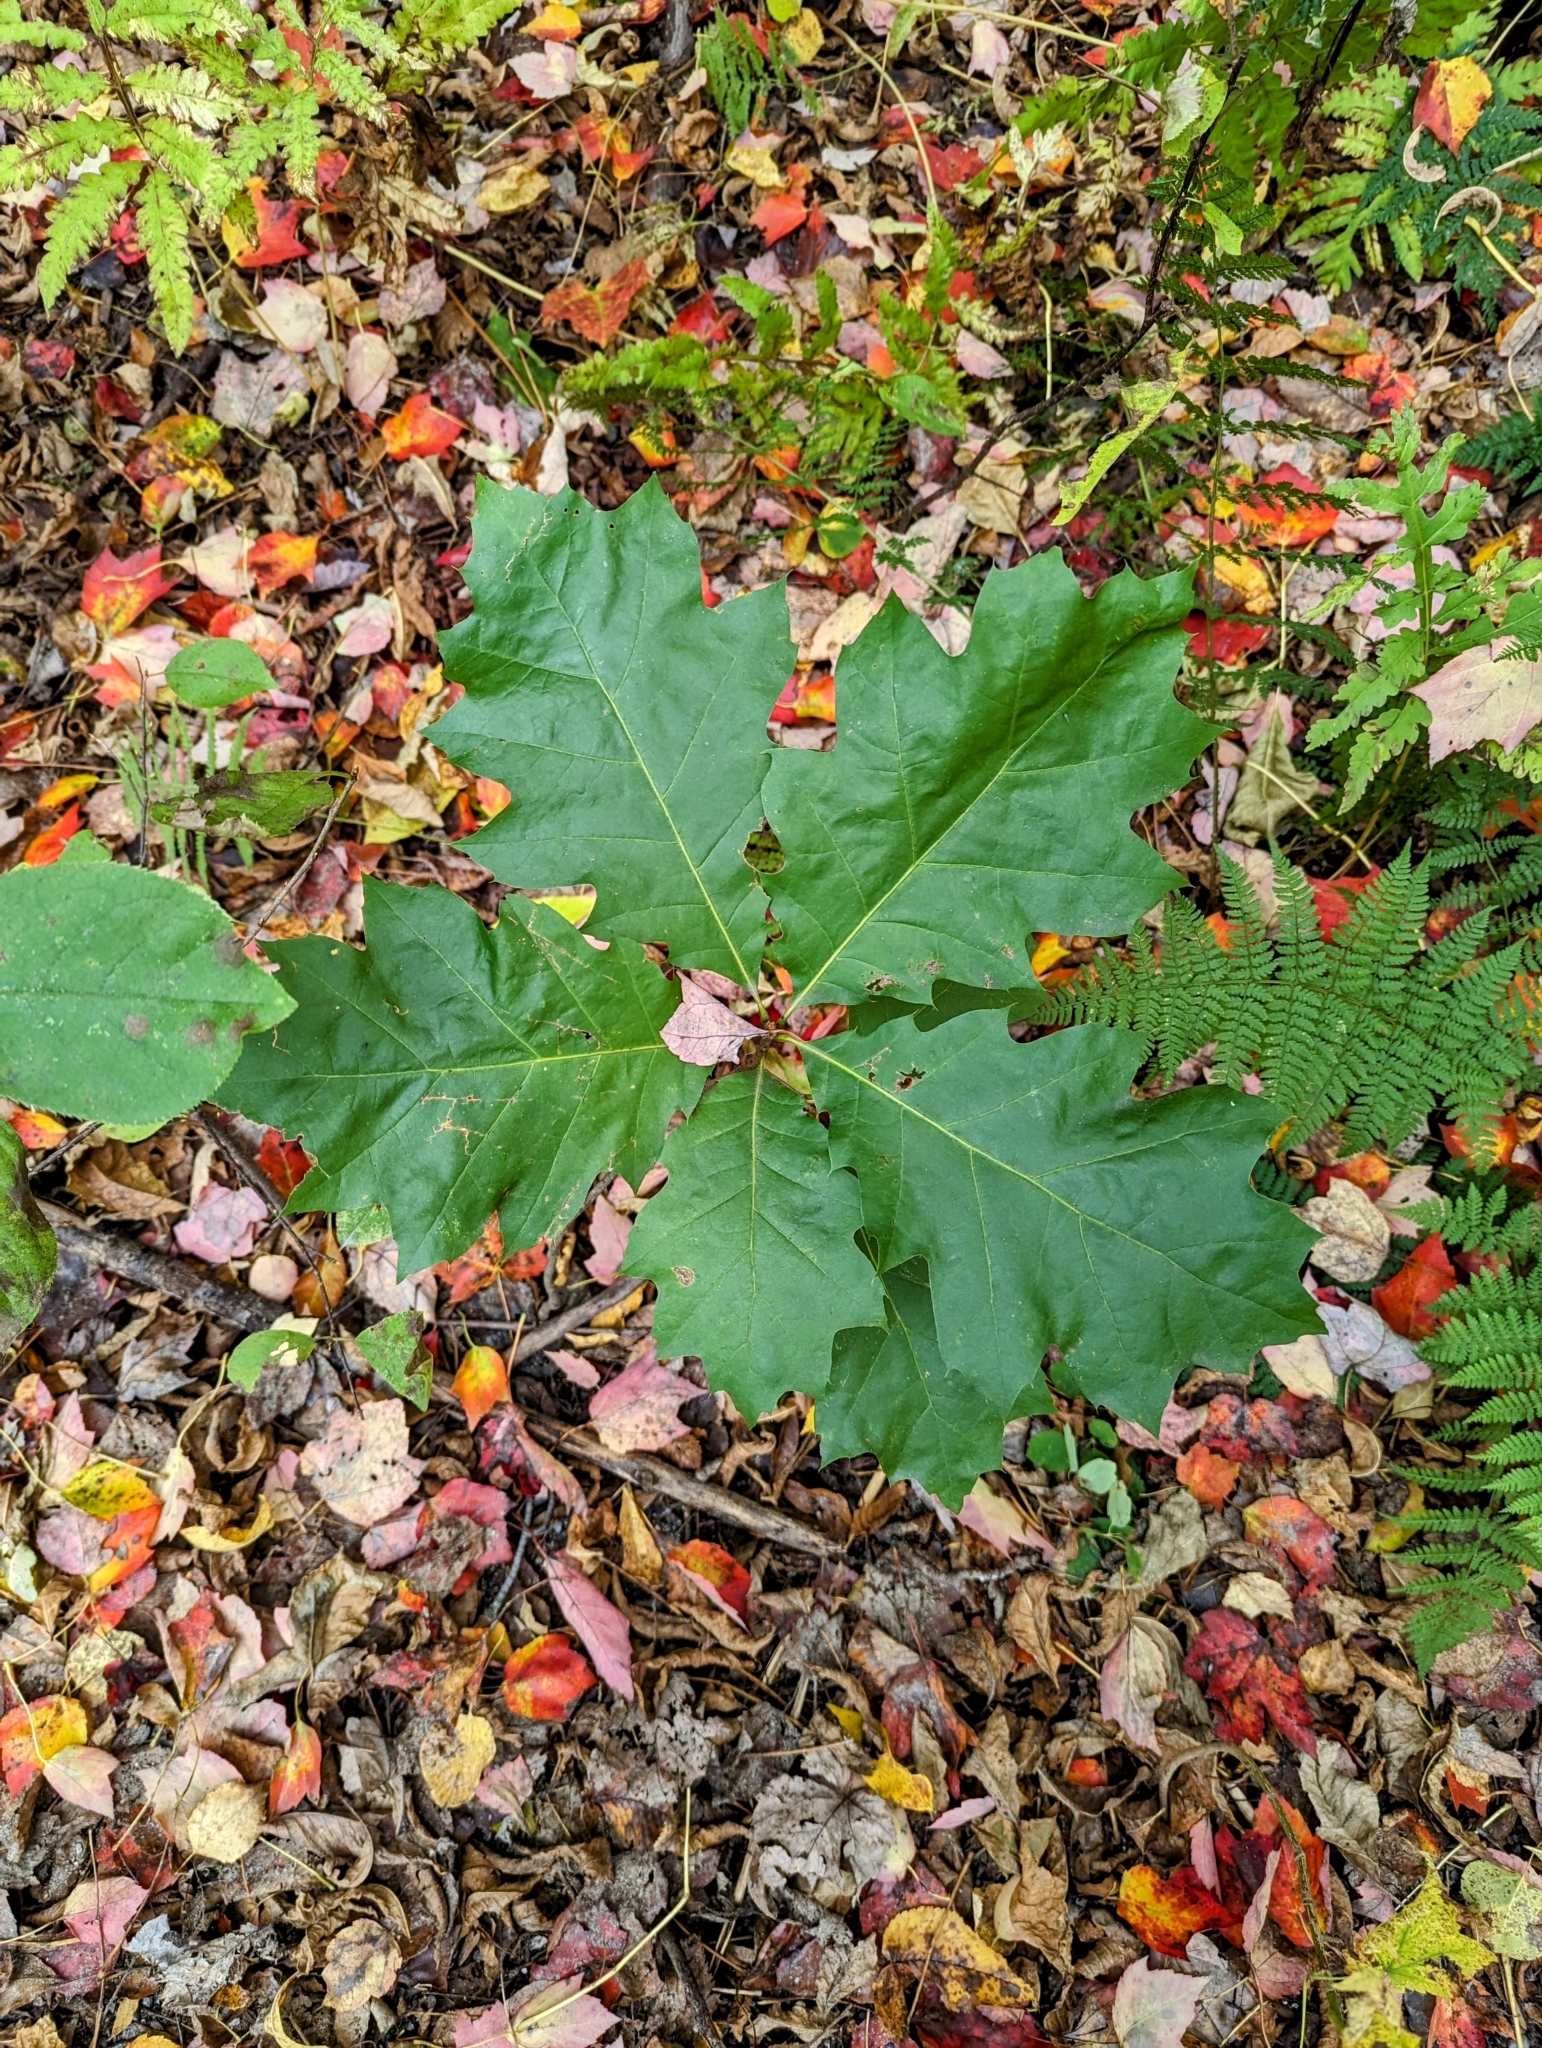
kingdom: Plantae
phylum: Tracheophyta
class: Magnoliopsida
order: Fagales
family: Fagaceae
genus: Quercus
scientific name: Quercus rubra
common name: Red oak
